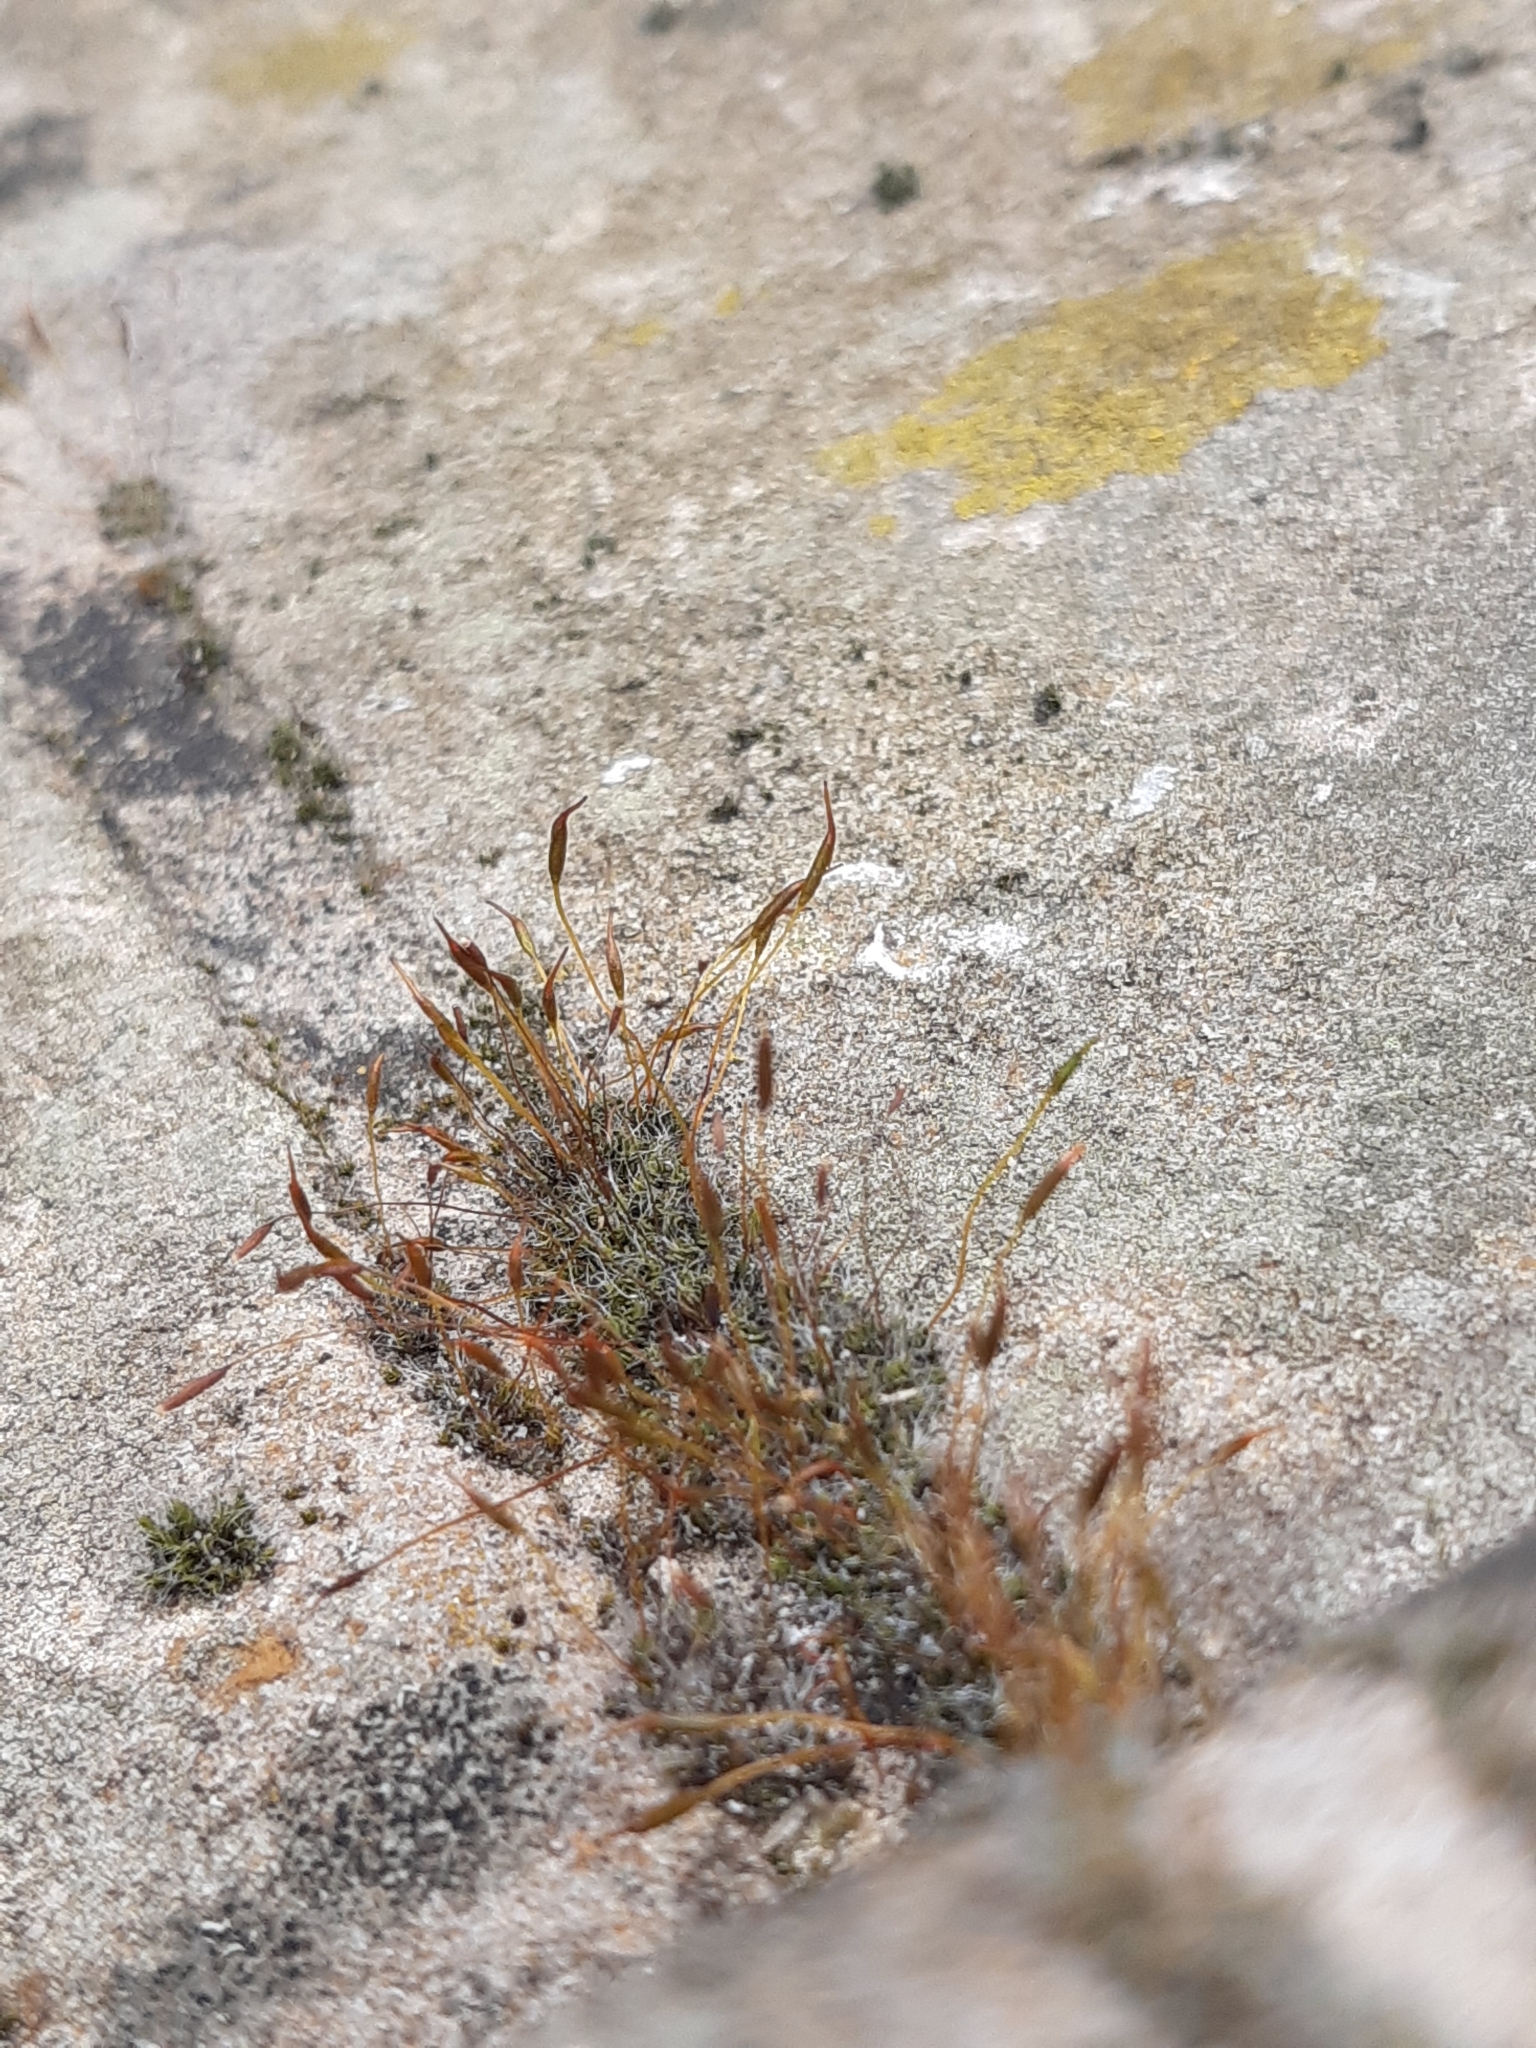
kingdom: Plantae
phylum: Bryophyta
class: Bryopsida
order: Pottiales
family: Pottiaceae
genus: Tortula
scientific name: Tortula muralis
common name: Wall screw-moss
